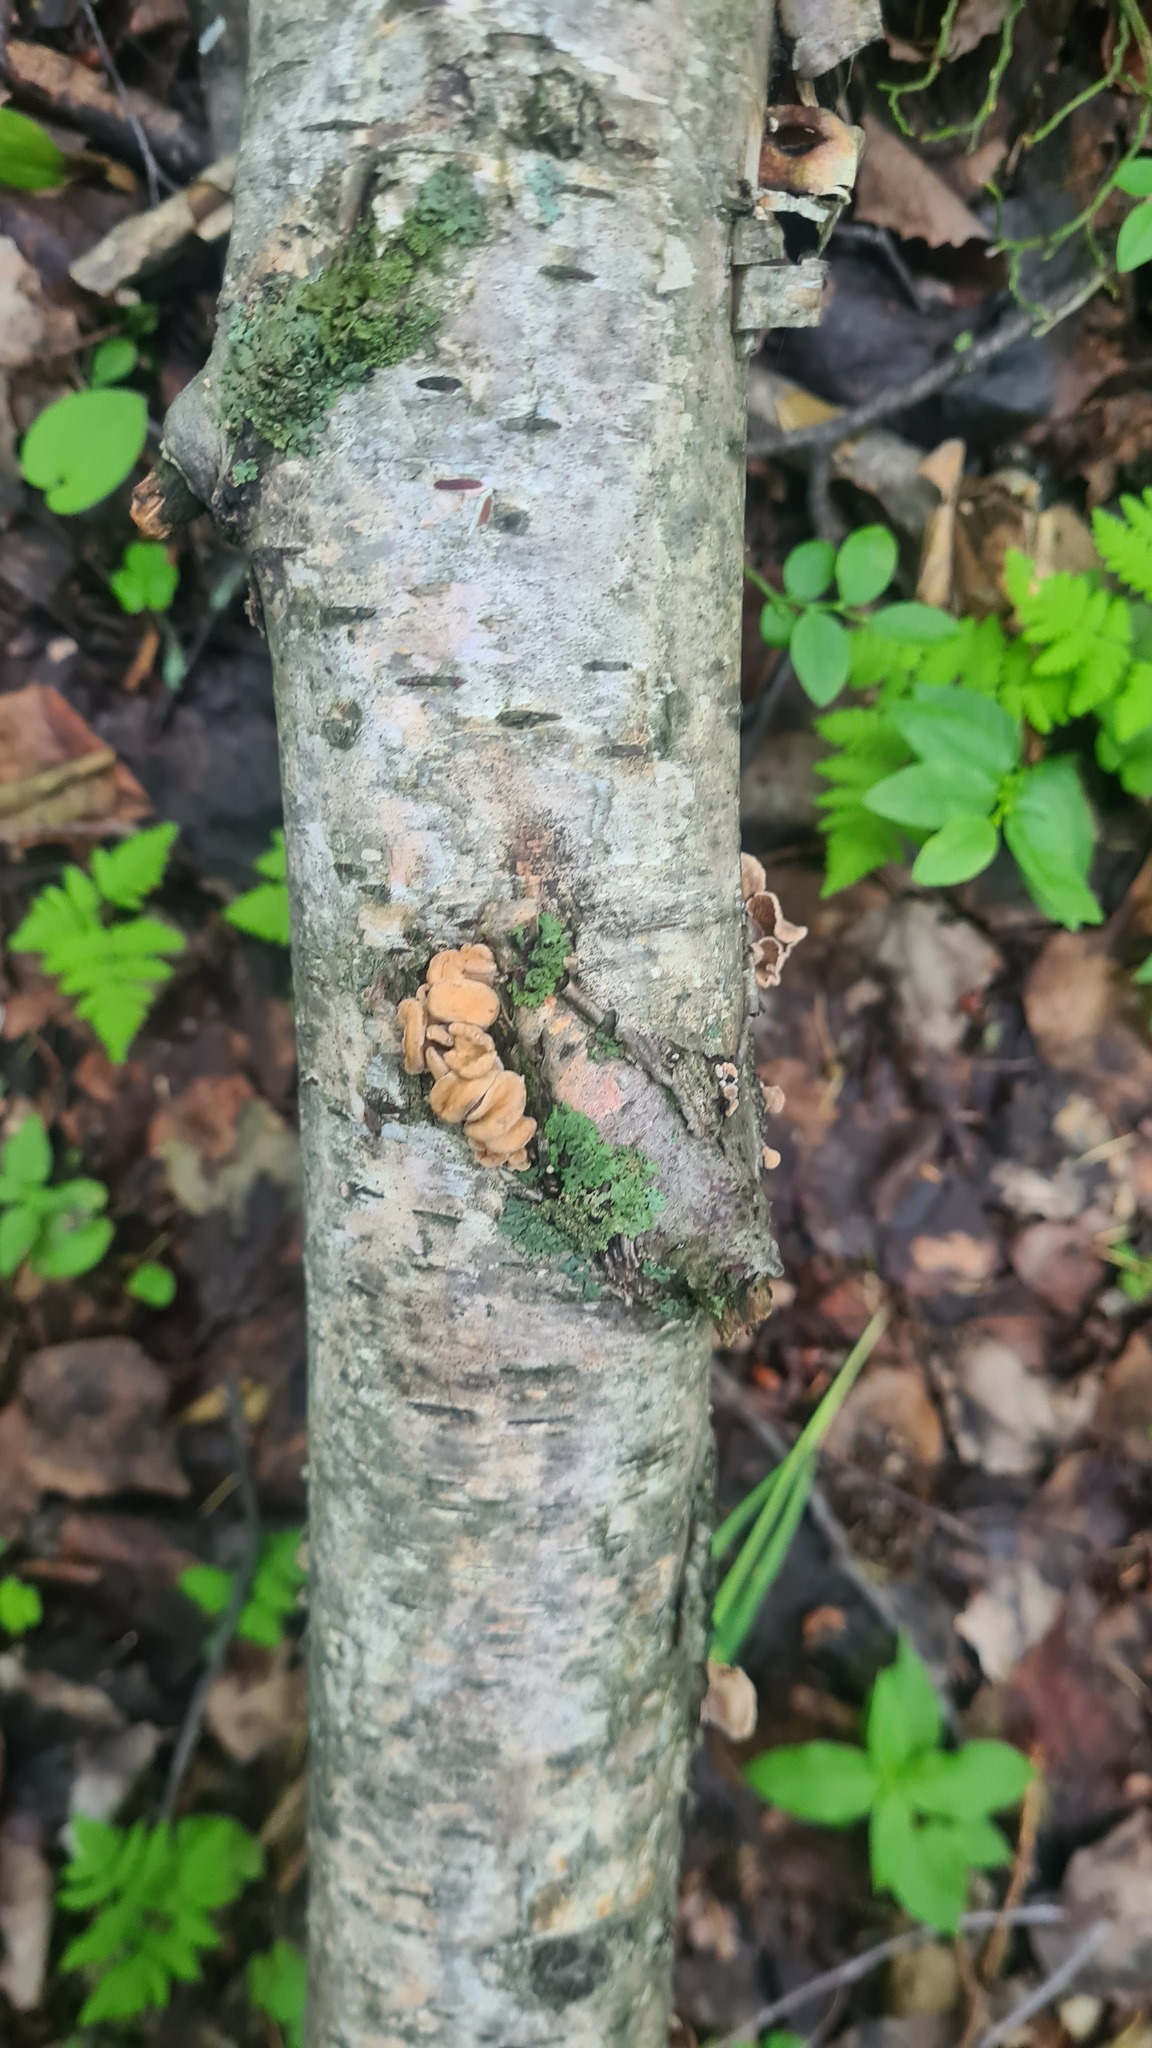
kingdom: Fungi
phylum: Basidiomycota
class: Agaricomycetes
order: Agaricales
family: Mycenaceae
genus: Panellus
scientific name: Panellus stipticus
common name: Bitter oysterling
